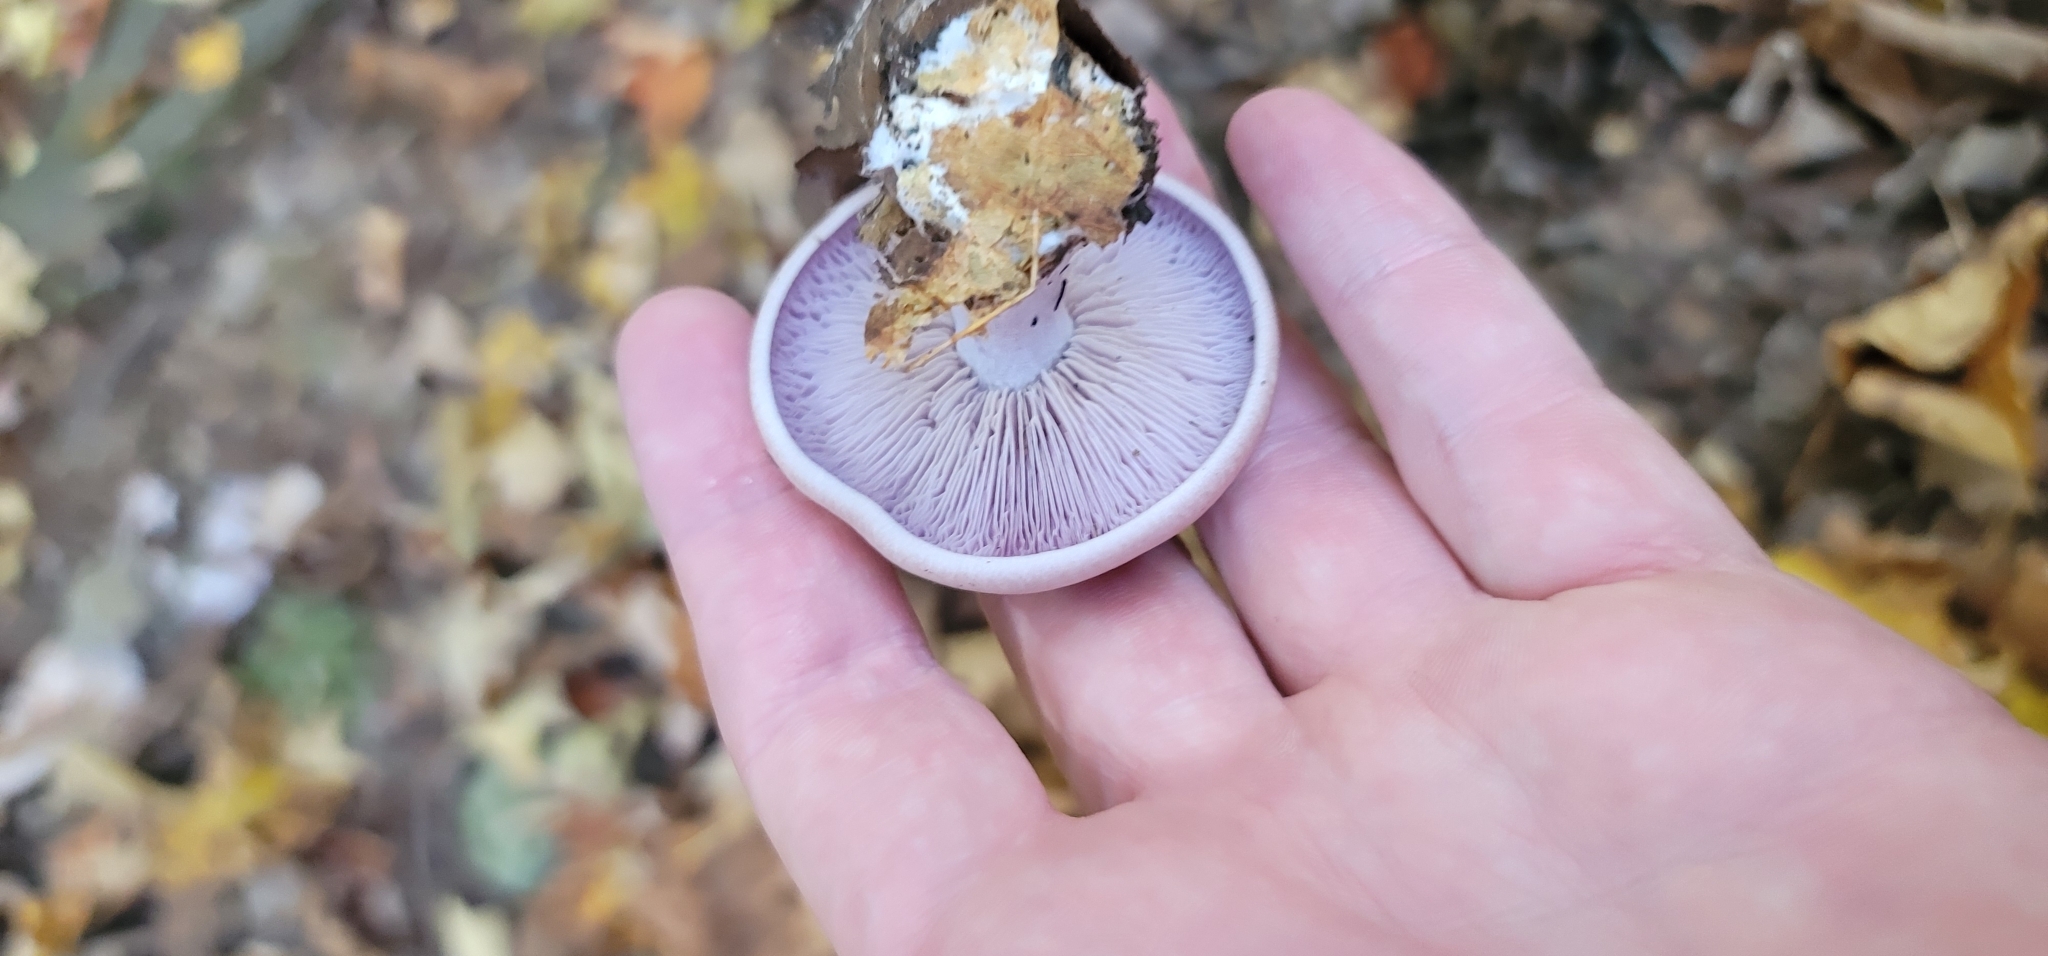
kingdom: Fungi
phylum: Basidiomycota
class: Agaricomycetes
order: Agaricales
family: Tricholomataceae
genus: Collybia
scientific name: Collybia
